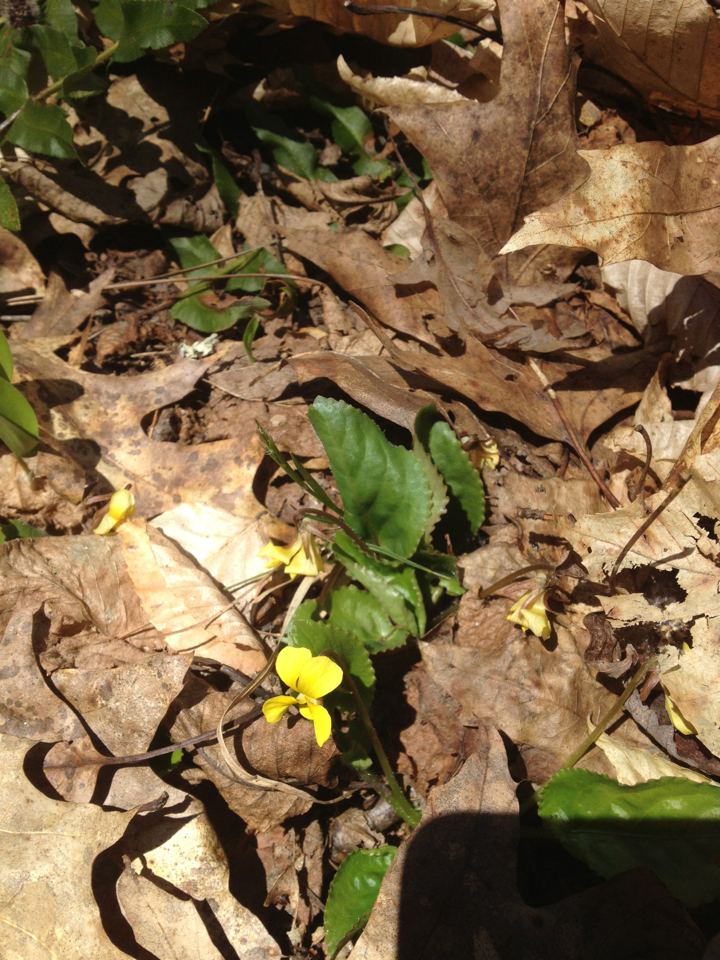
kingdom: Plantae
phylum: Tracheophyta
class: Magnoliopsida
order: Malpighiales
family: Violaceae
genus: Viola
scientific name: Viola rotundifolia
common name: Early yellow violet
